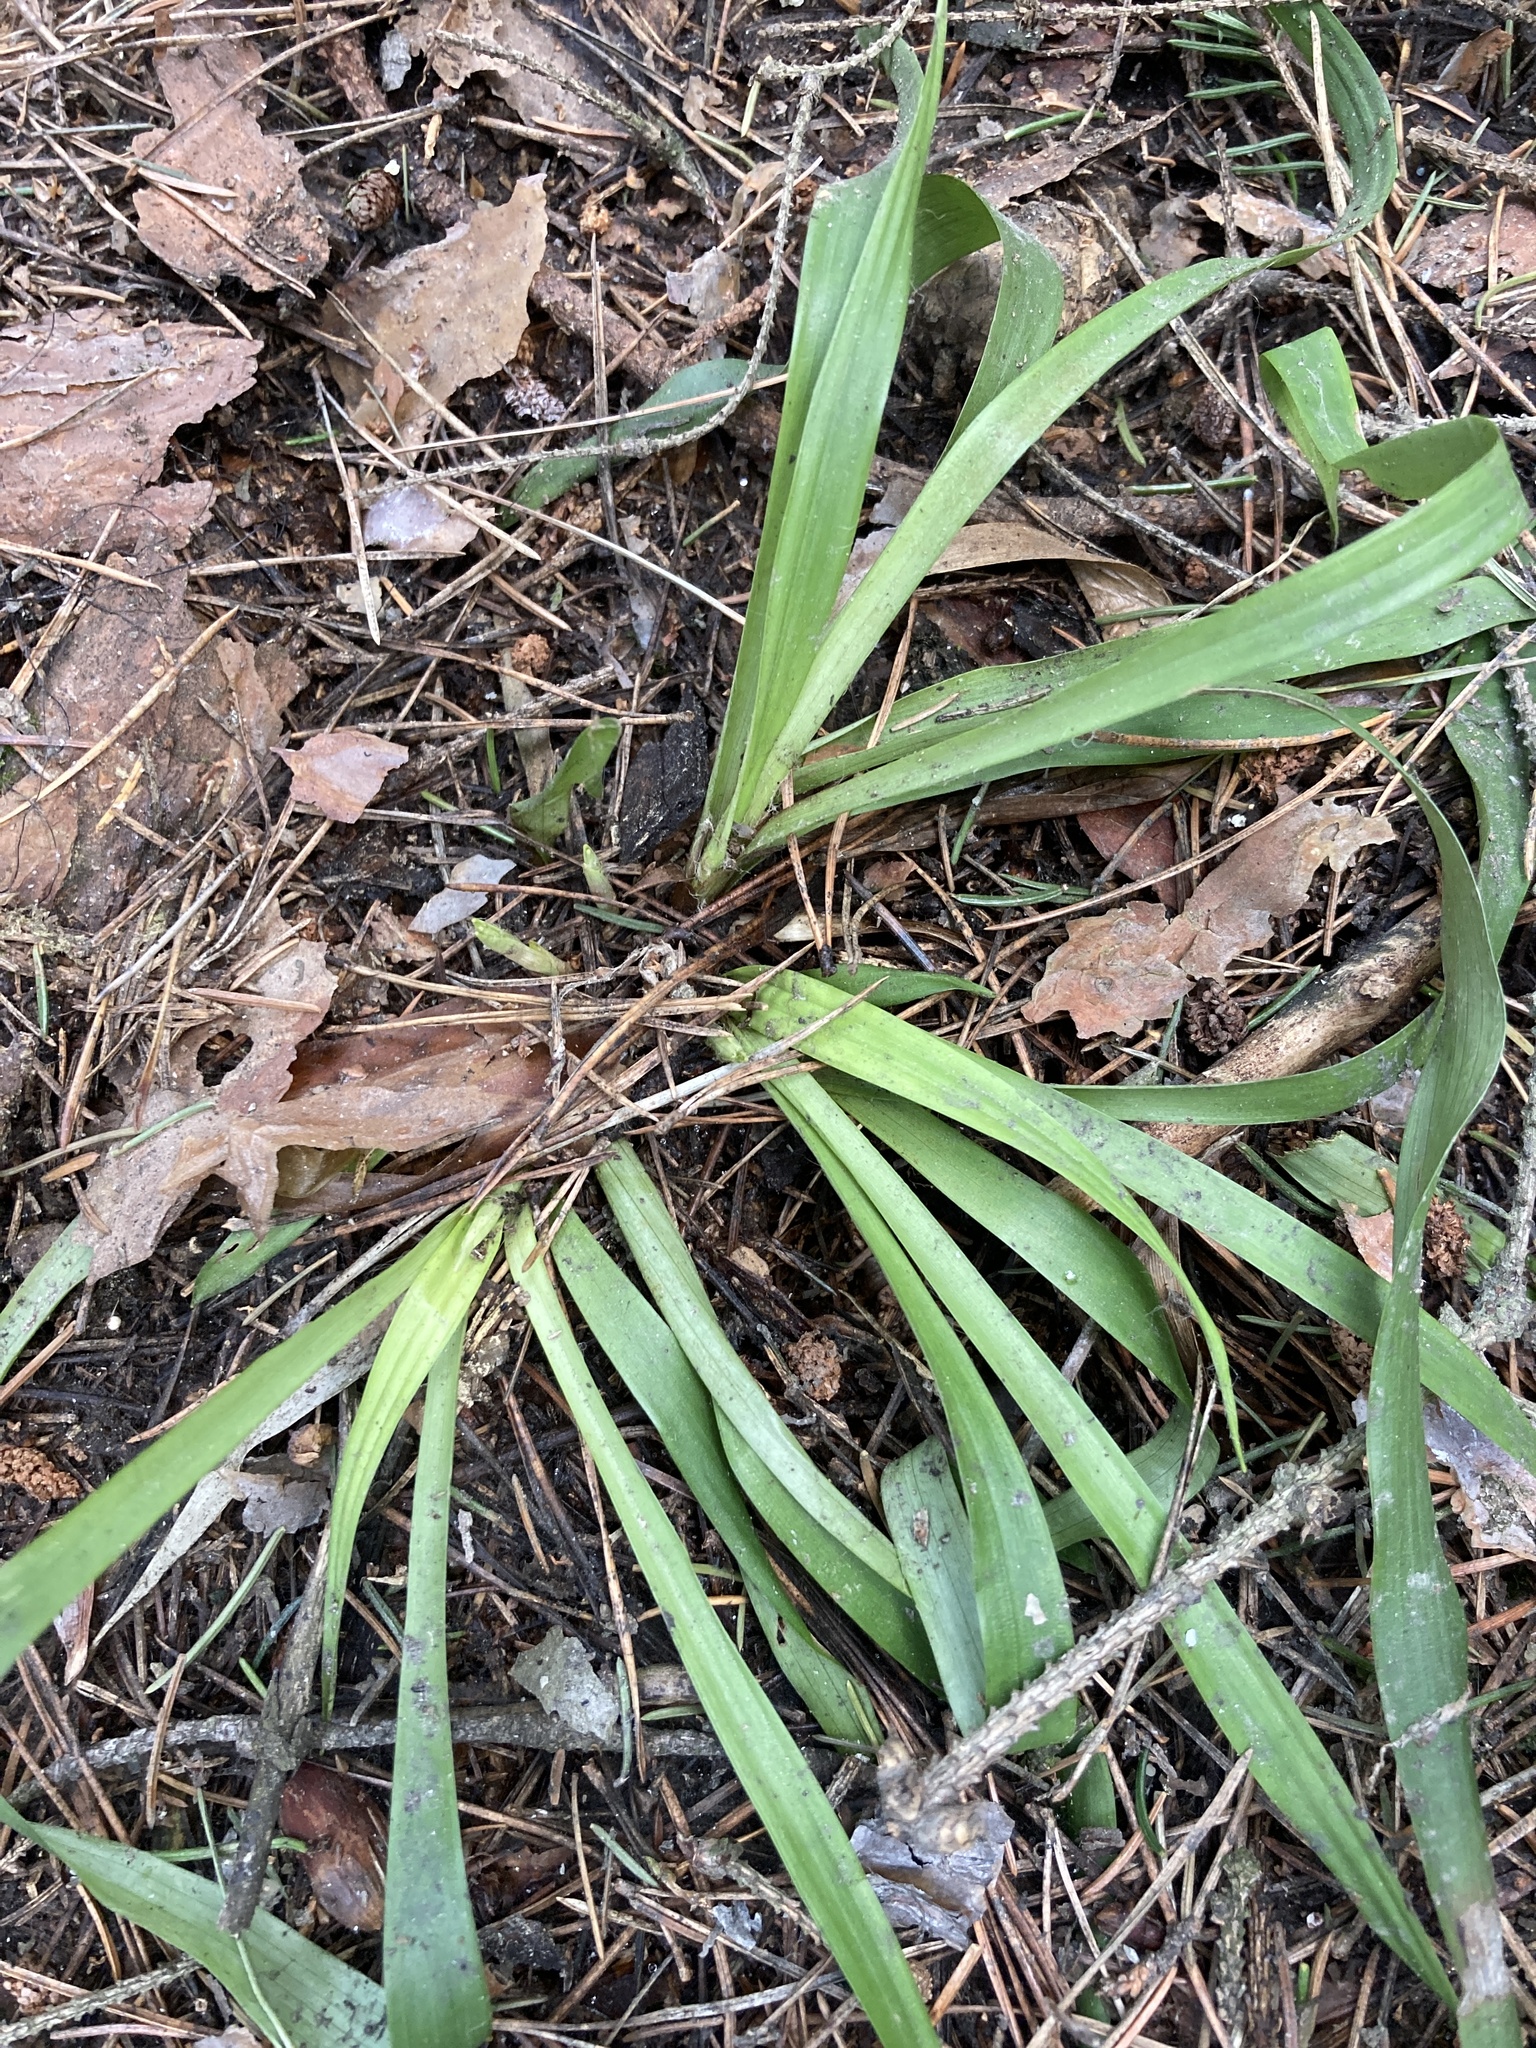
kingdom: Plantae
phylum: Tracheophyta
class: Liliopsida
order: Poales
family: Juncaceae
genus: Luzula
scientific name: Luzula pilosa
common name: Hairy wood-rush
